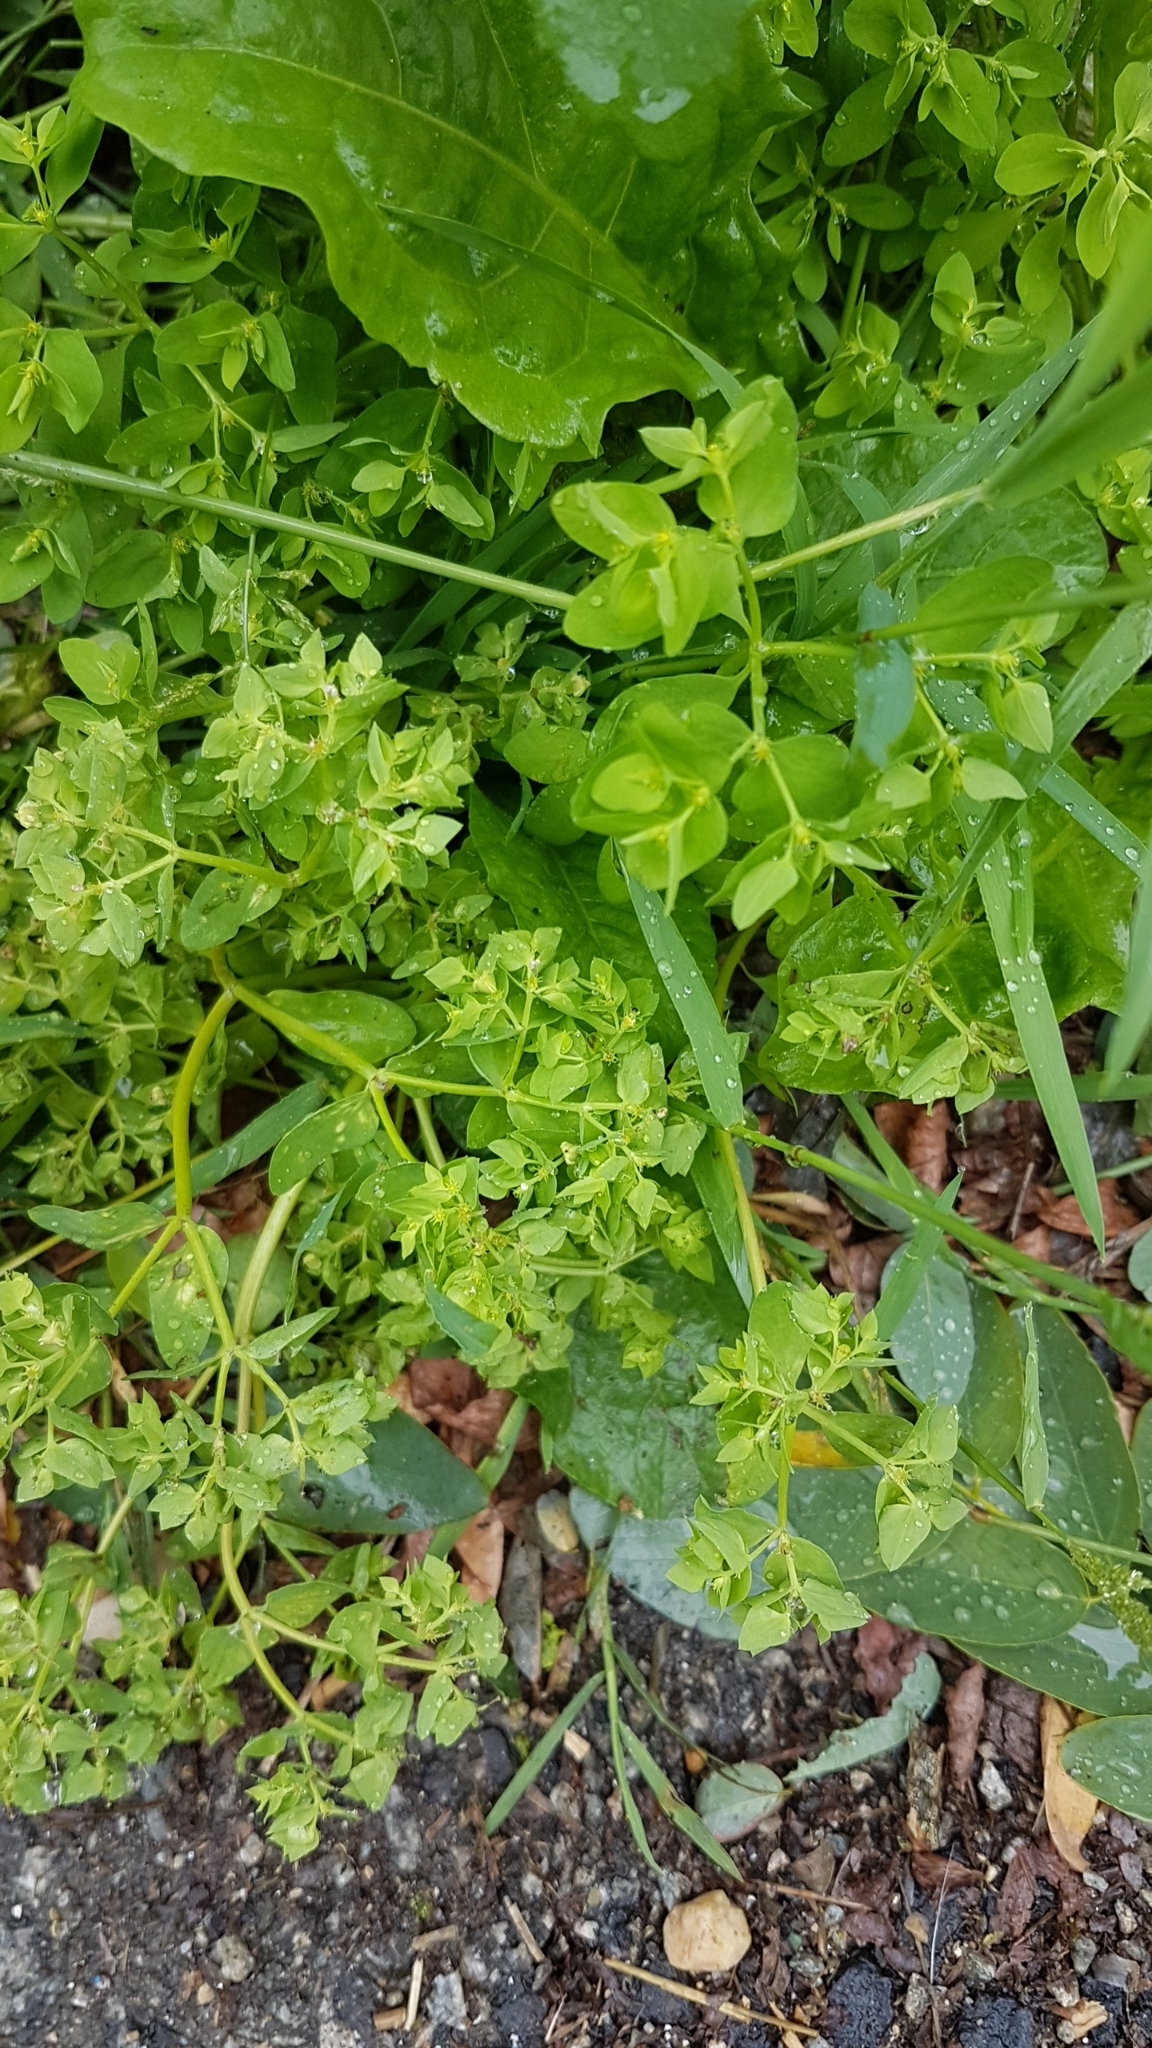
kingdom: Plantae
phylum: Tracheophyta
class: Magnoliopsida
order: Malpighiales
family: Euphorbiaceae
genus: Euphorbia
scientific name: Euphorbia peplus
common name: Petty spurge
